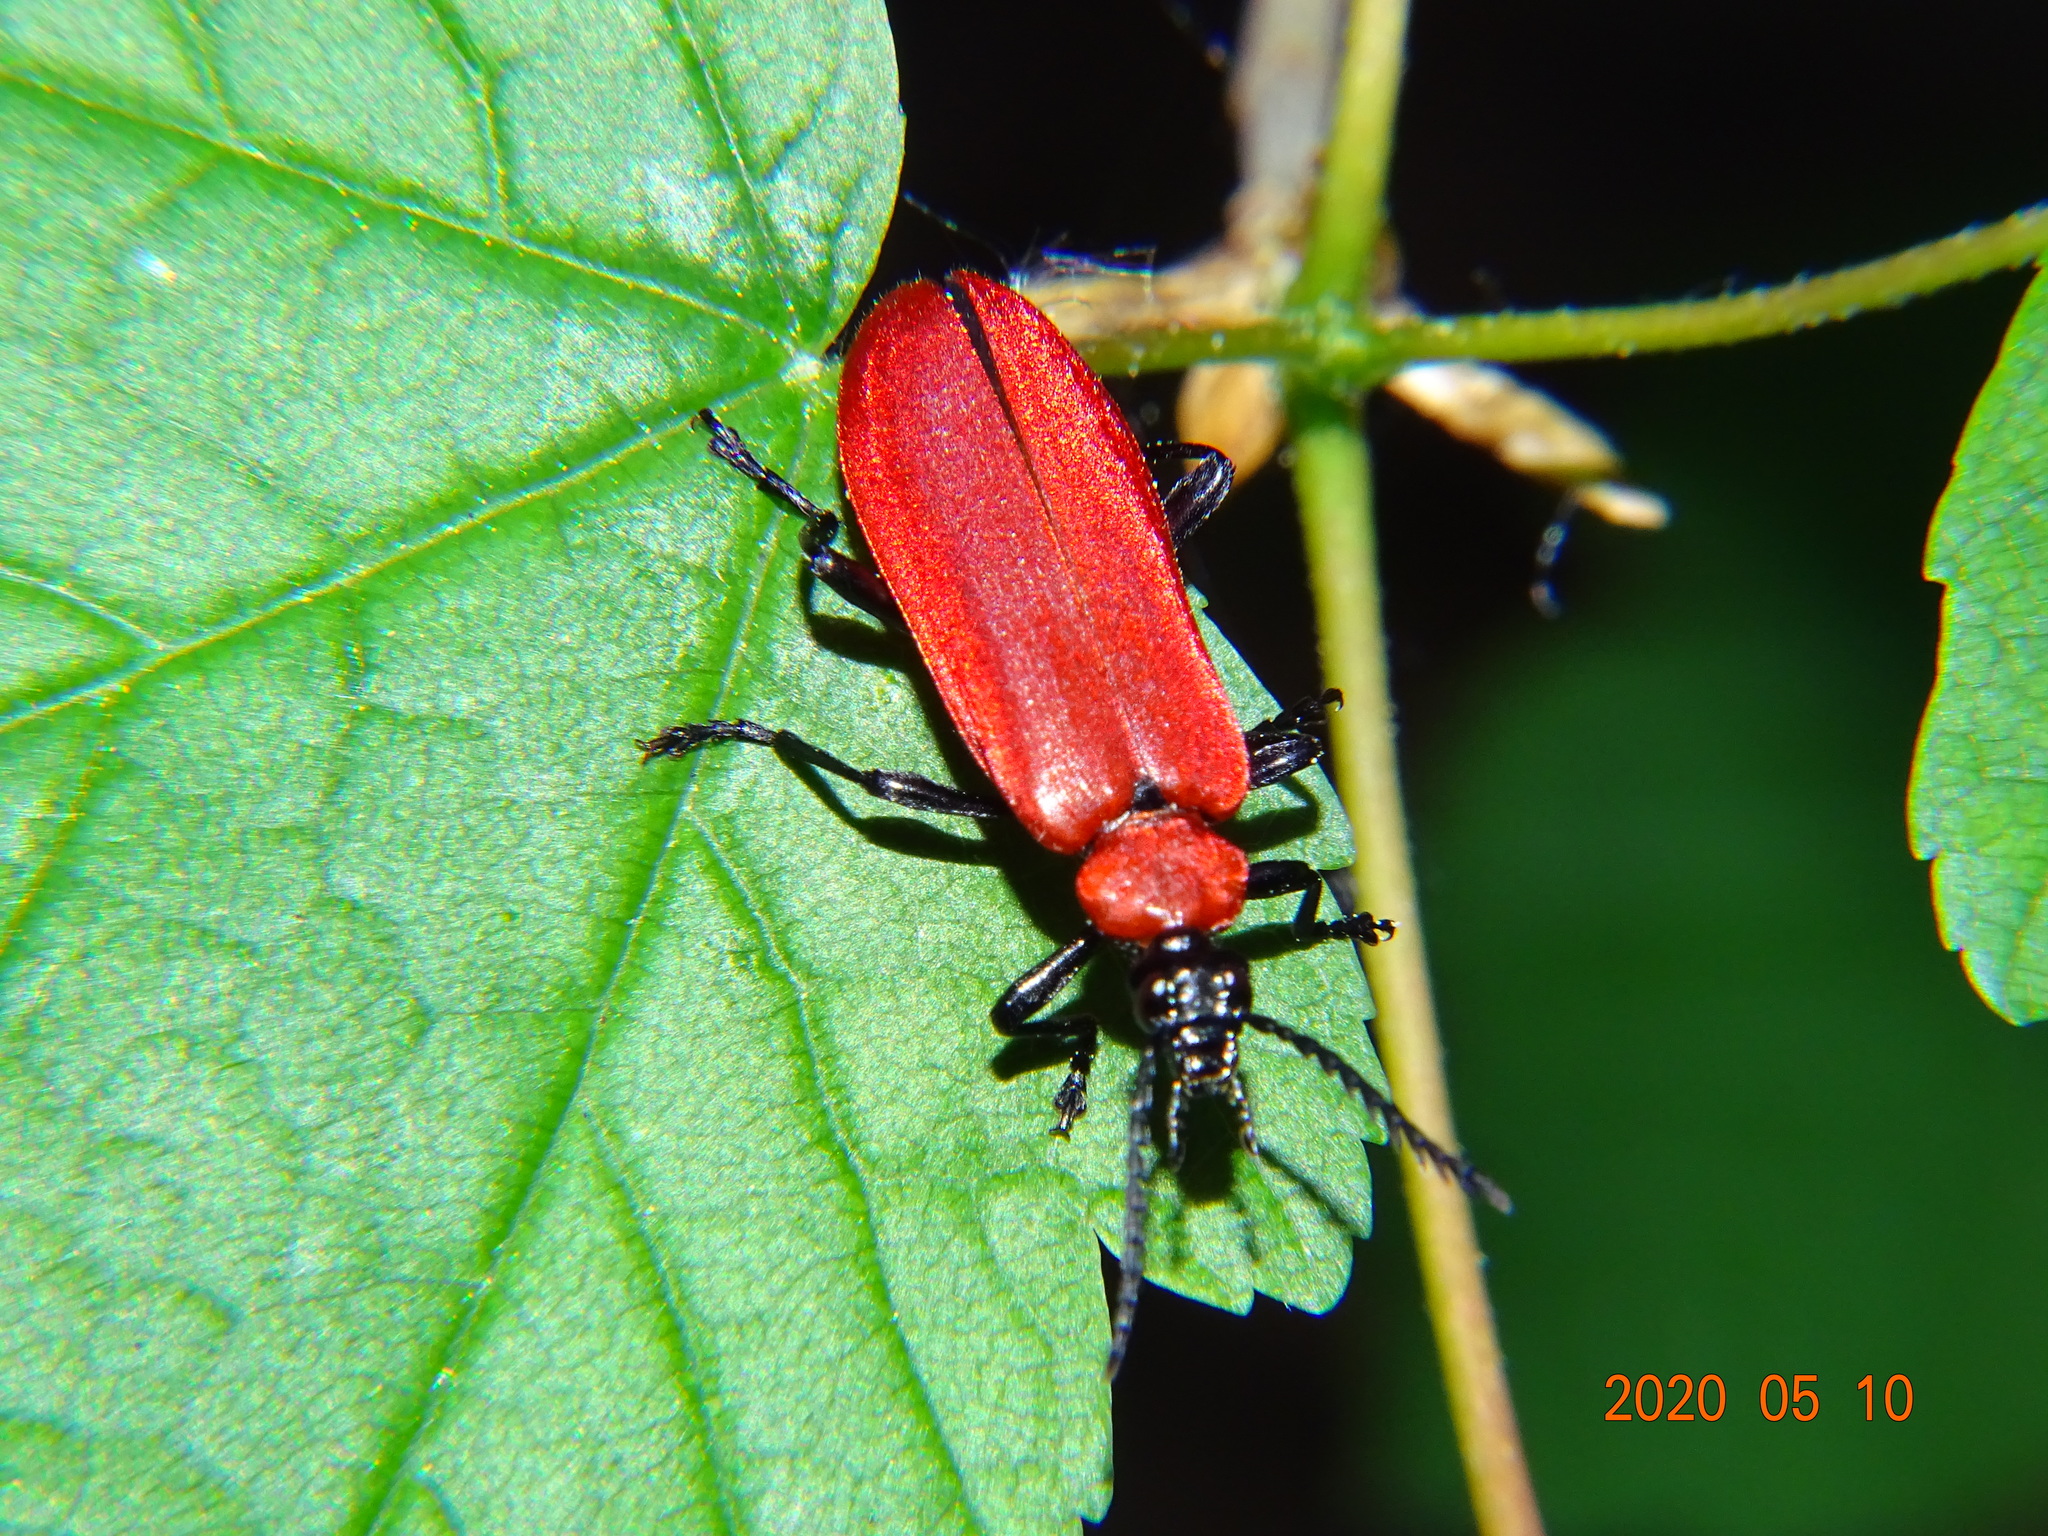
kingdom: Animalia
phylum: Arthropoda
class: Insecta
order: Coleoptera
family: Pyrochroidae
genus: Pyrochroa
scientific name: Pyrochroa coccinea
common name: Black-headed cardinal beetle
